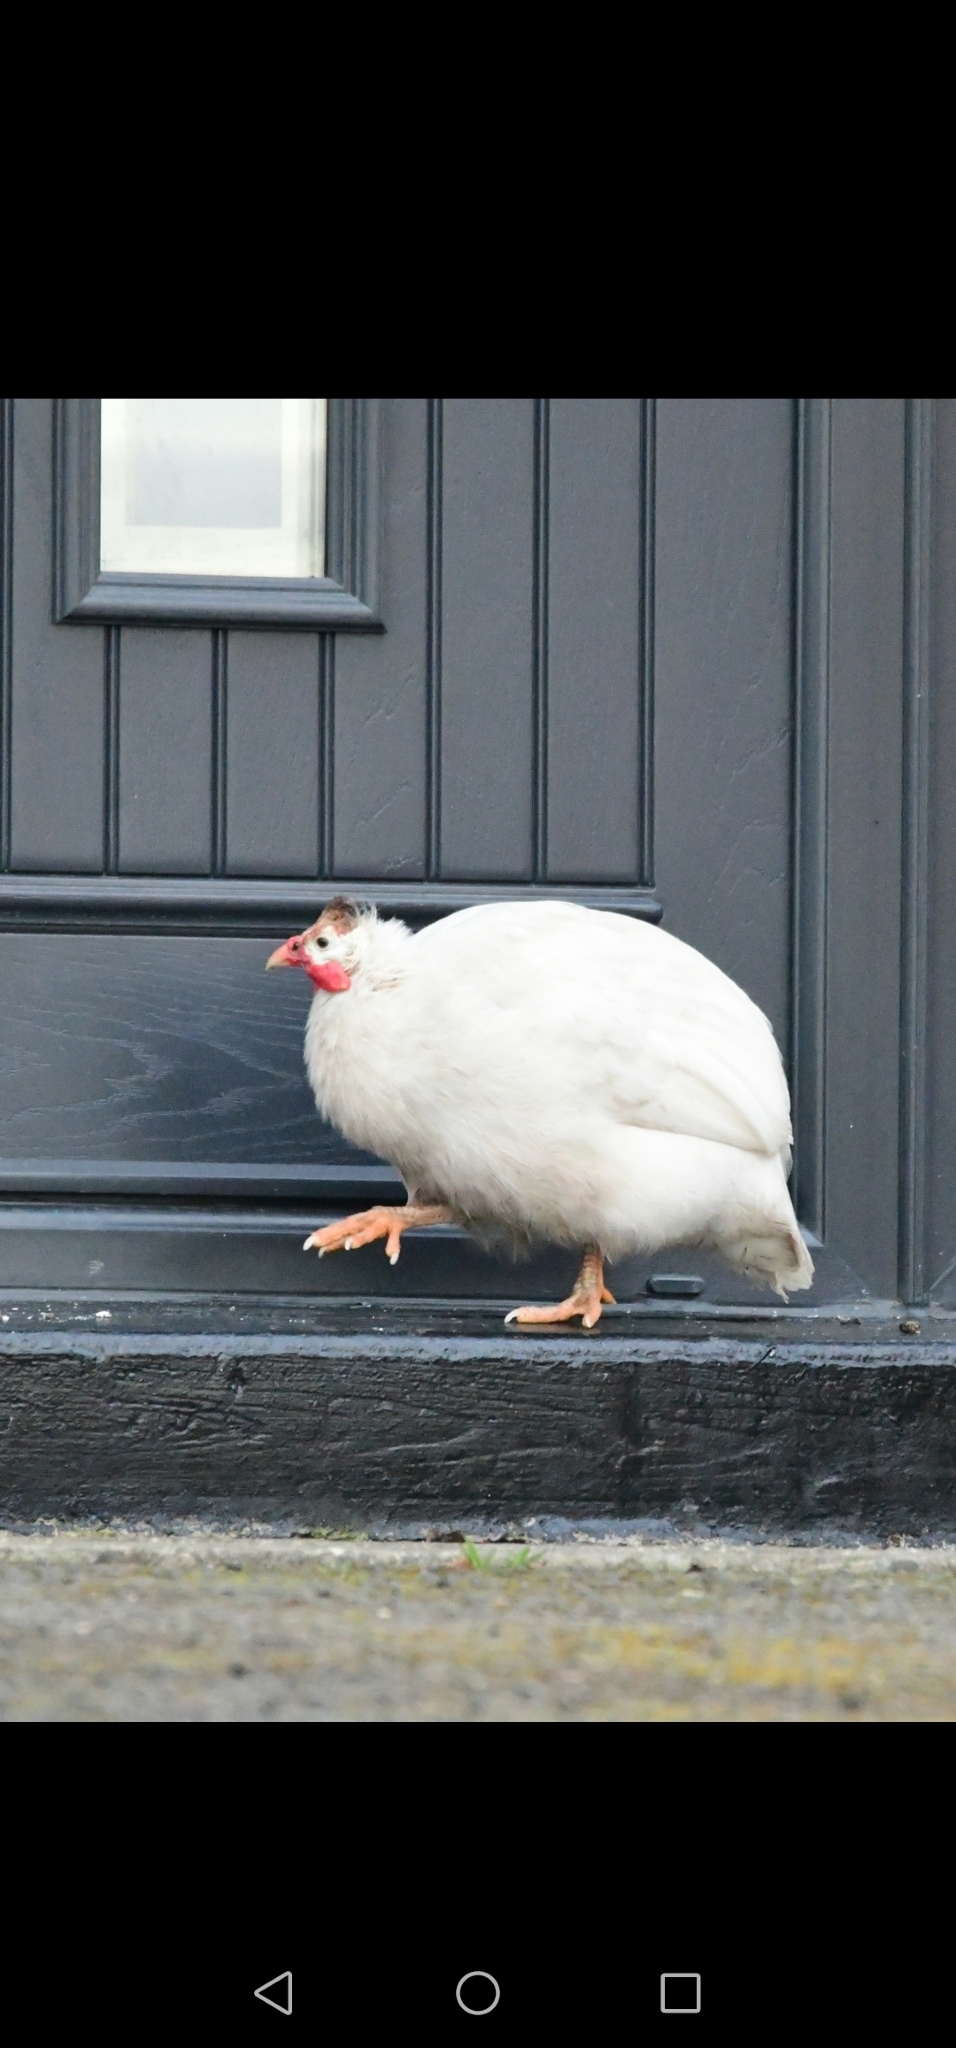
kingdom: Animalia
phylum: Chordata
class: Aves
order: Galliformes
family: Numididae
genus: Numida
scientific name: Numida meleagris
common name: Helmeted guineafowl
